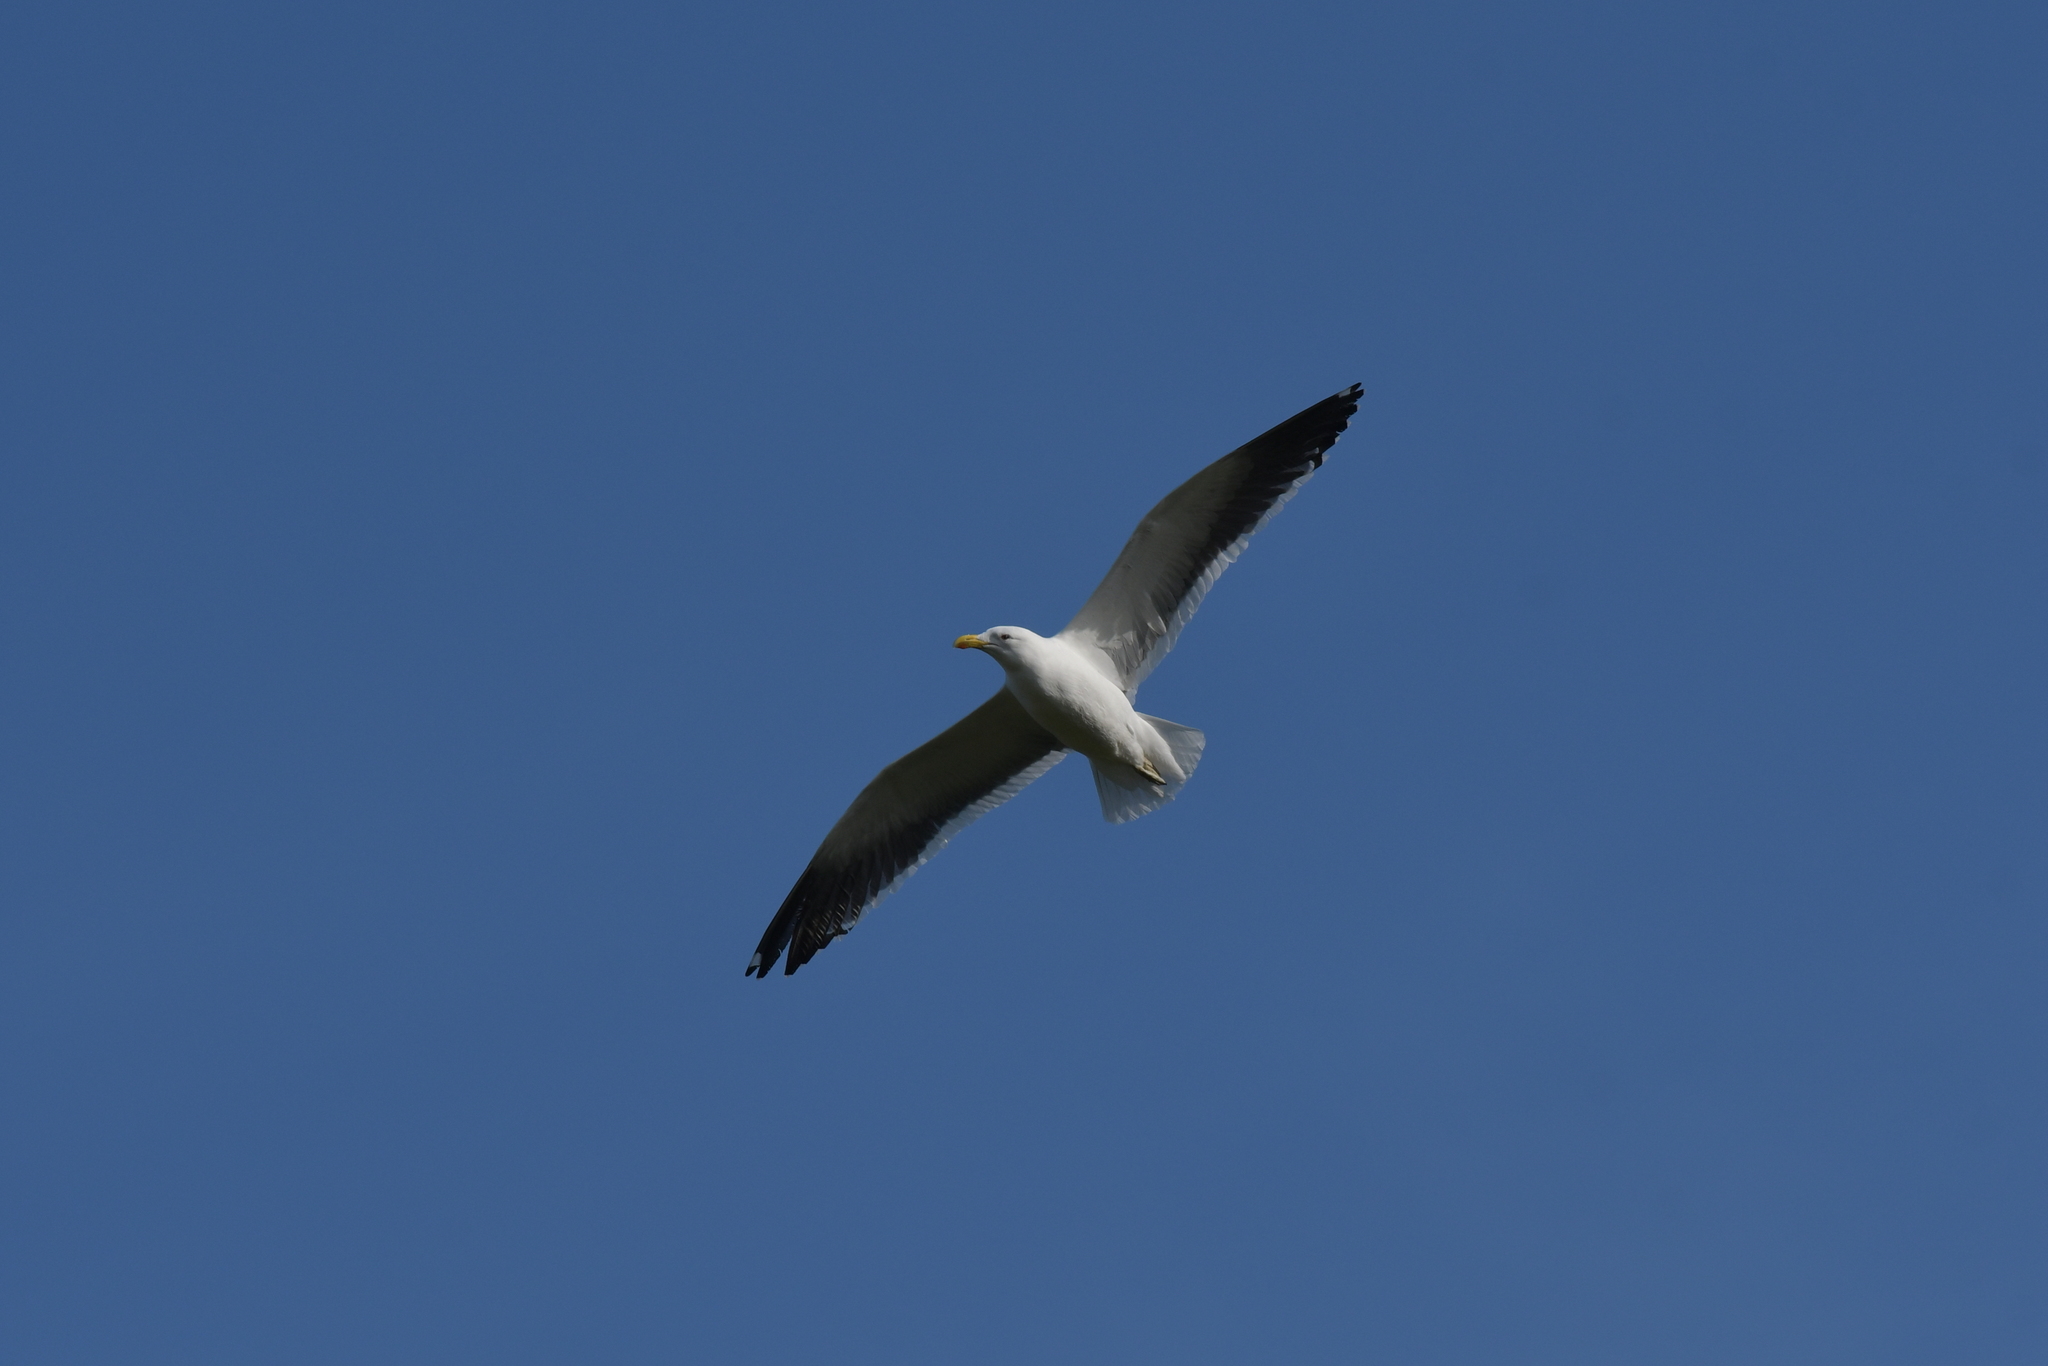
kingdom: Animalia
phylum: Chordata
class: Aves
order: Charadriiformes
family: Laridae
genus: Larus
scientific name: Larus dominicanus
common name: Kelp gull
